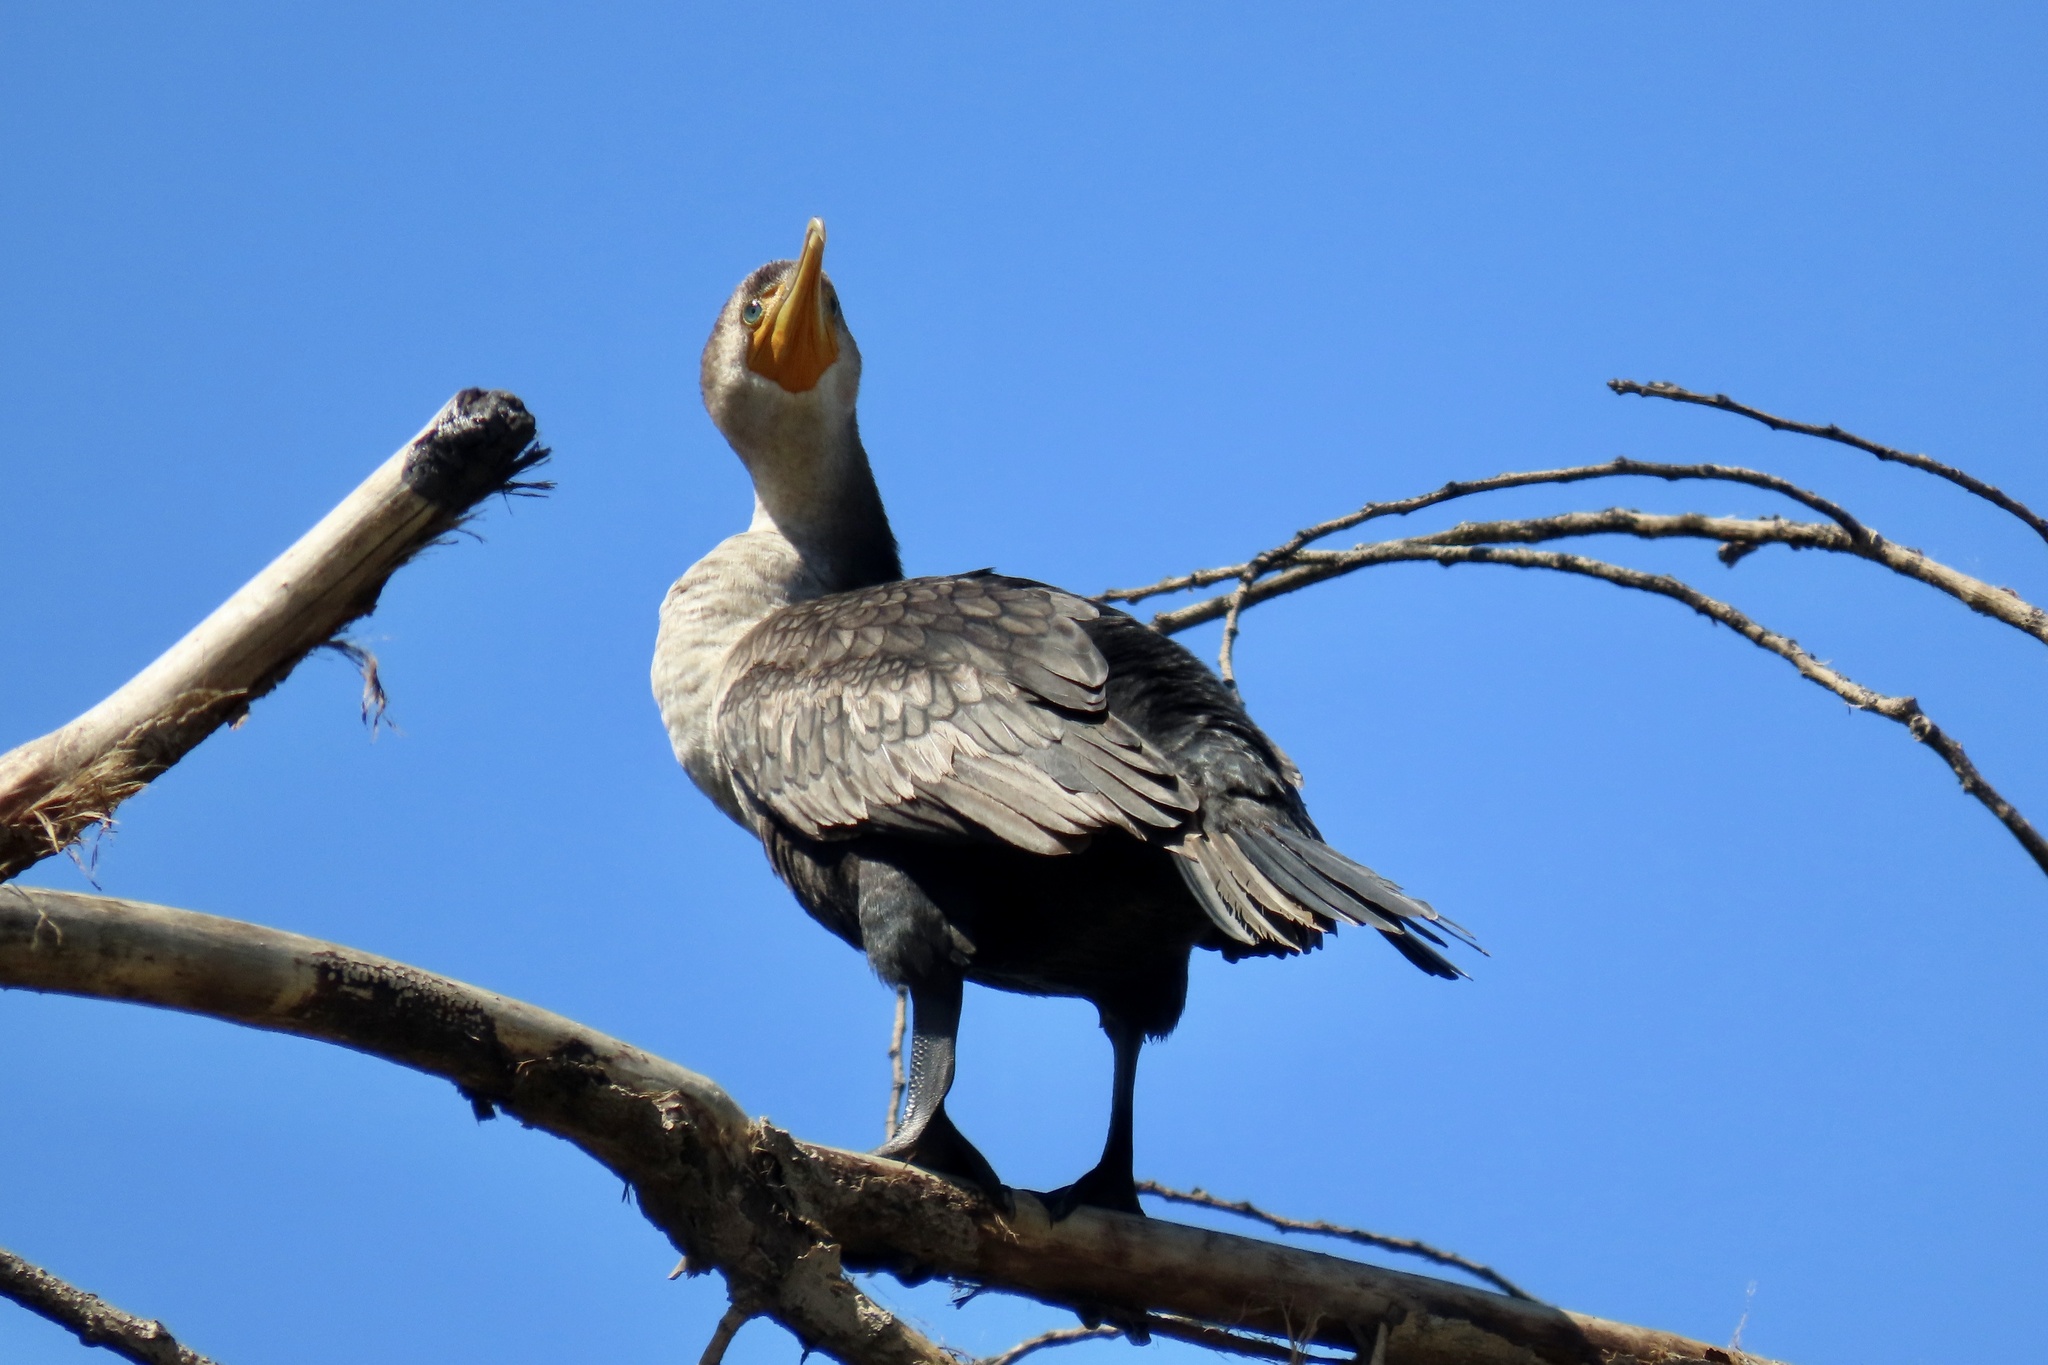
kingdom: Animalia
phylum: Chordata
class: Aves
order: Suliformes
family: Phalacrocoracidae
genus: Phalacrocorax
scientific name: Phalacrocorax auritus
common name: Double-crested cormorant
